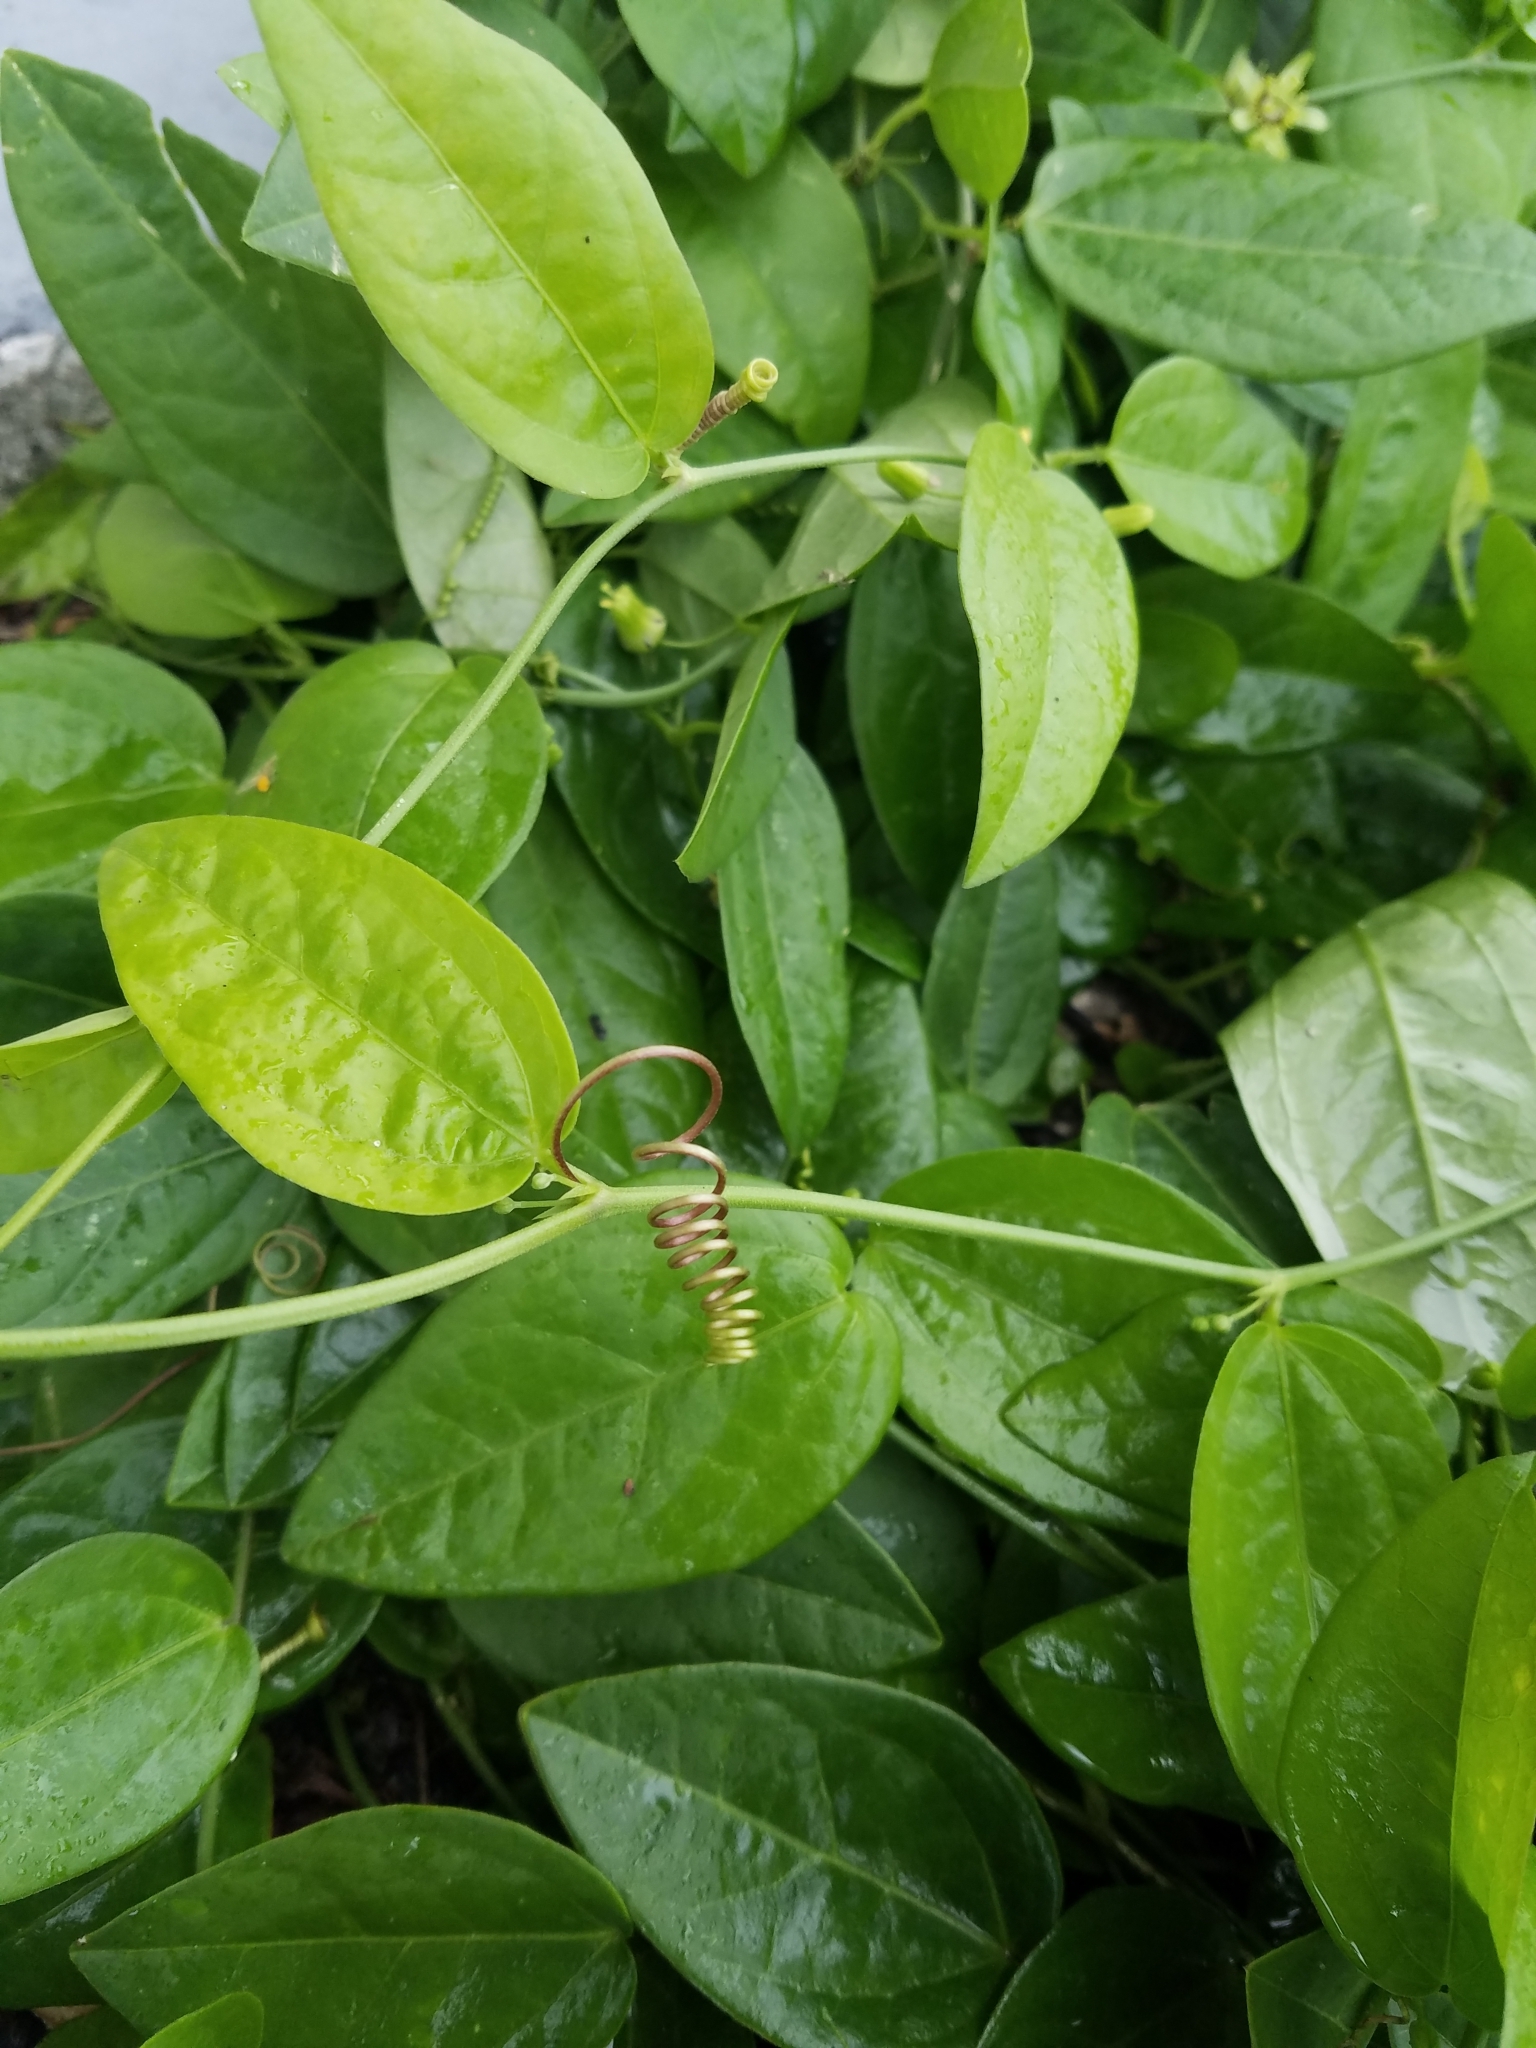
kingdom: Plantae
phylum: Tracheophyta
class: Magnoliopsida
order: Malpighiales
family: Passifloraceae
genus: Passiflora
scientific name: Passiflora pallida
